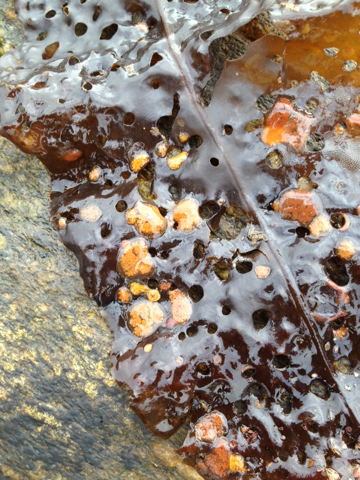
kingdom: Animalia
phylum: Chordata
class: Ascidiacea
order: Stolidobranchia
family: Styelidae
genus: Botrylloides
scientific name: Botrylloides violaceus
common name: Colonial sea squirt
